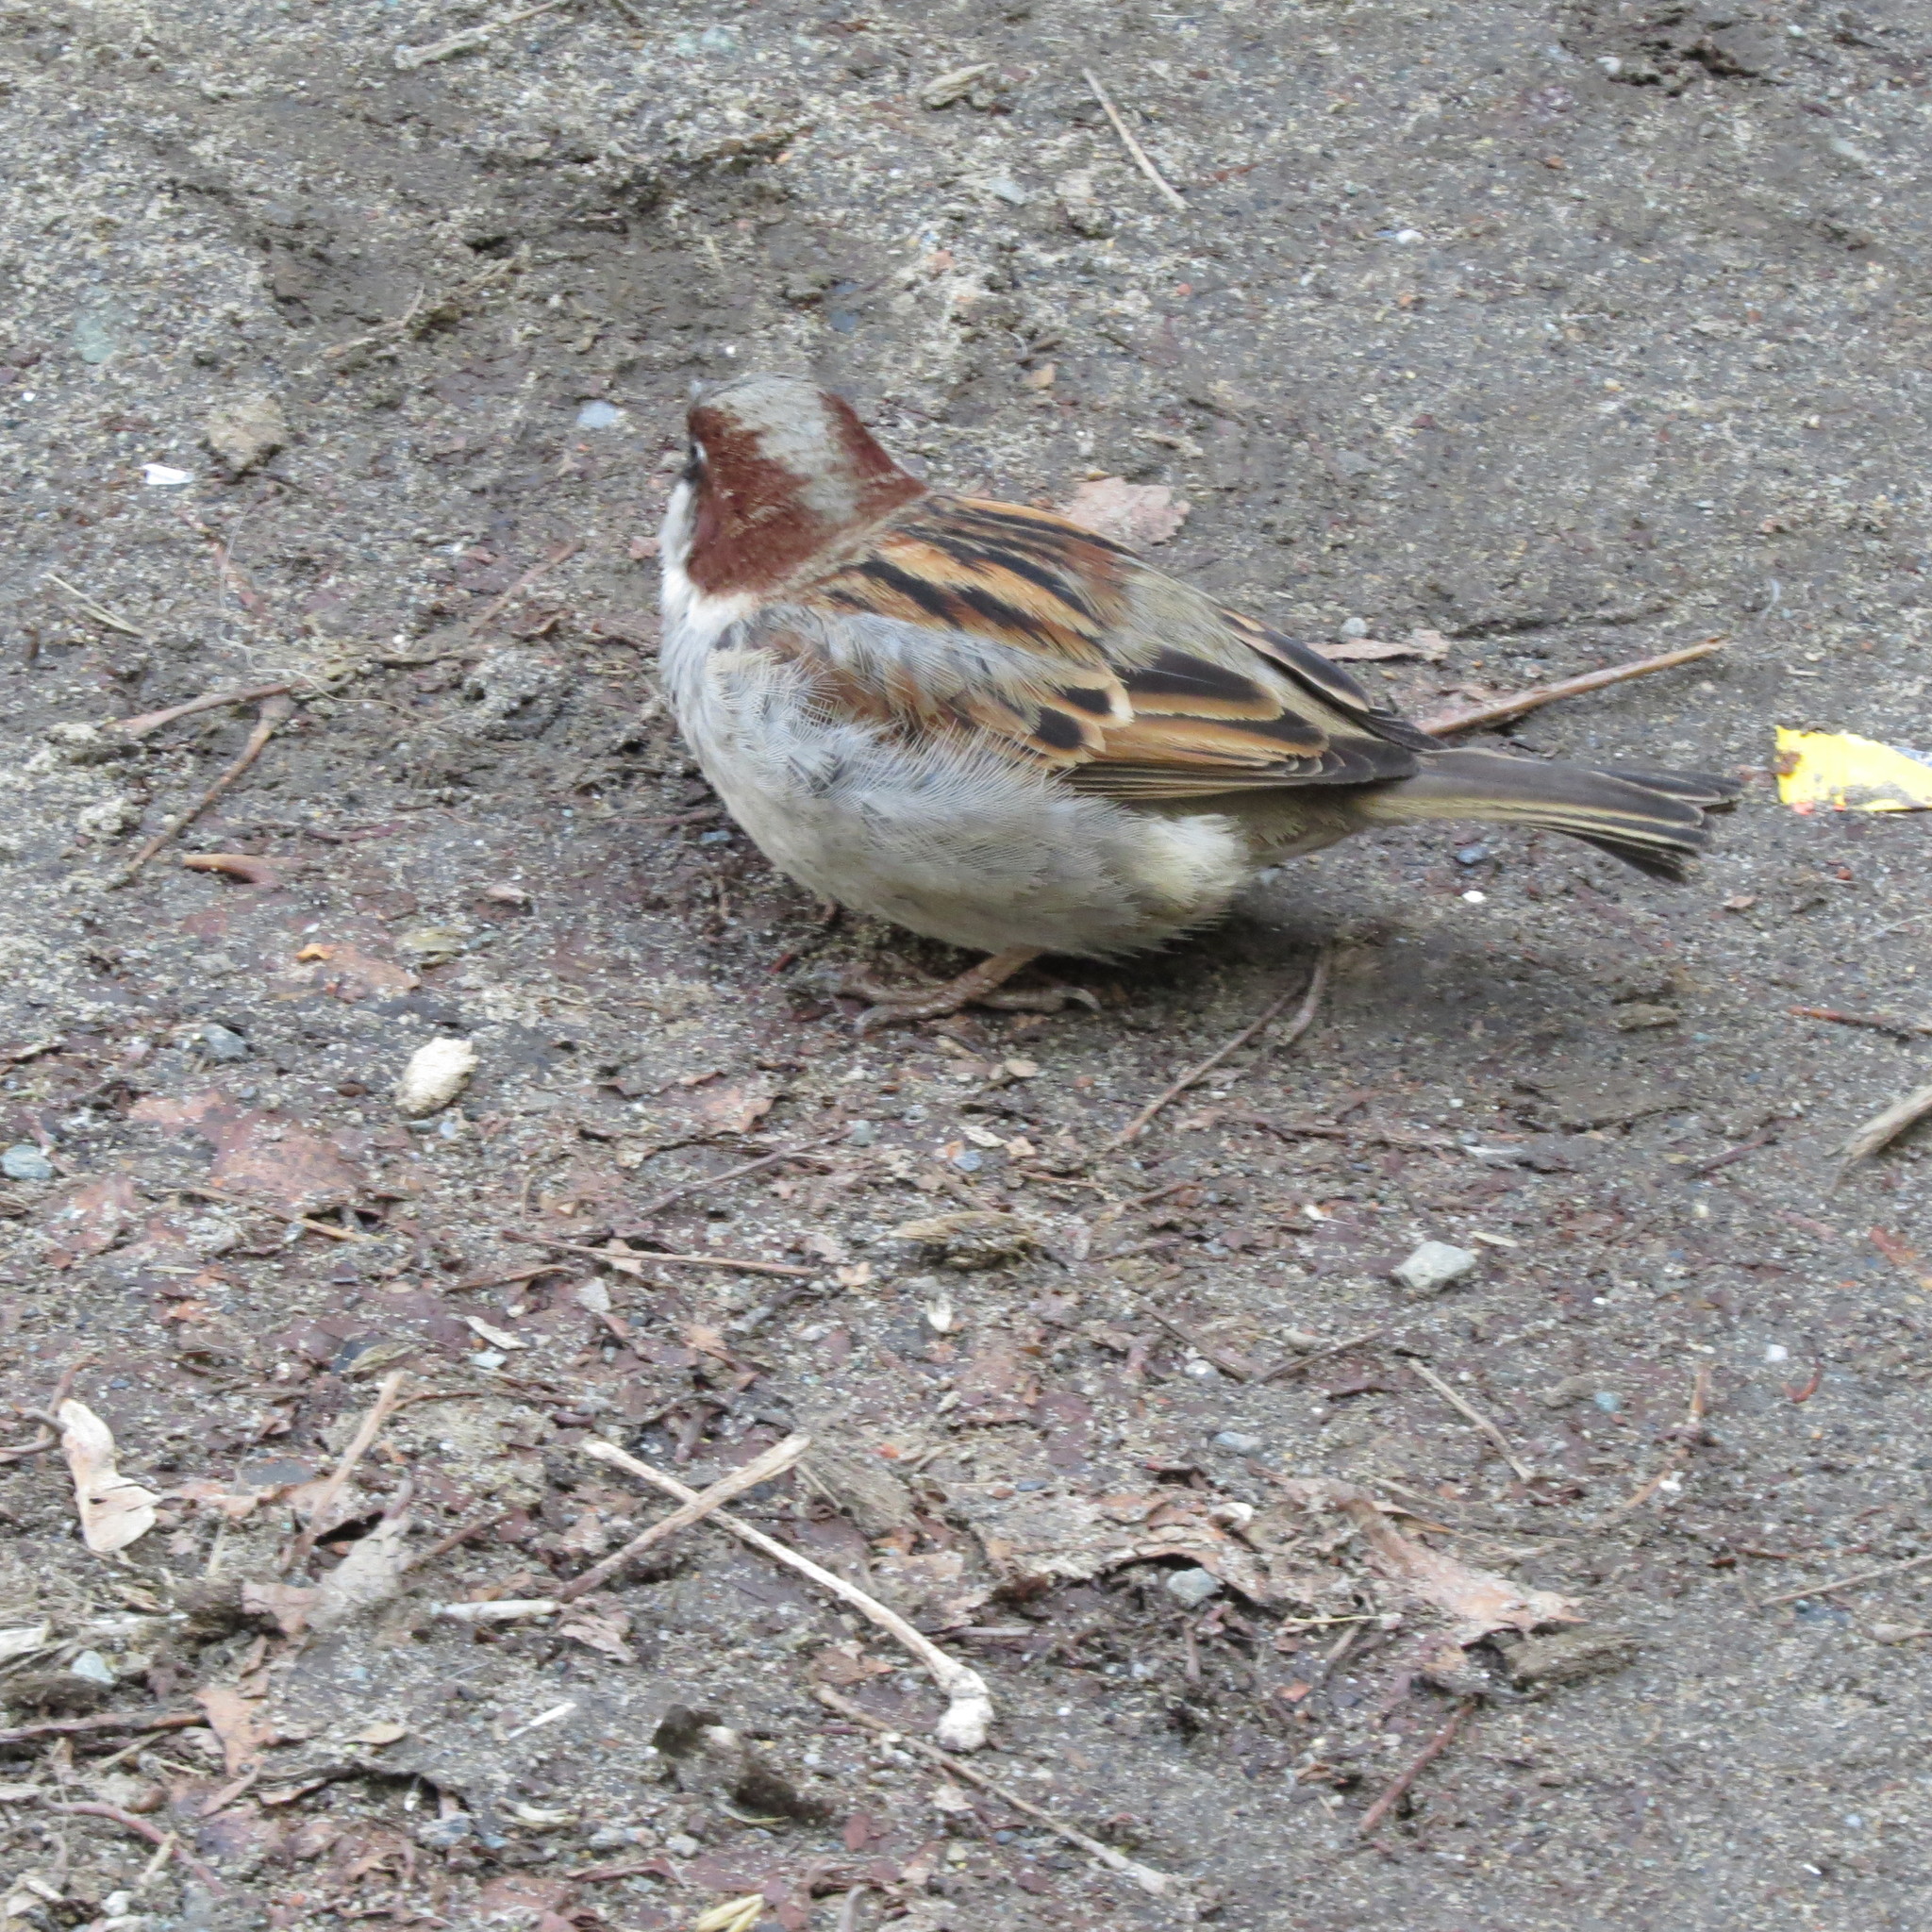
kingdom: Animalia
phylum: Chordata
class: Aves
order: Passeriformes
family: Passeridae
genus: Passer
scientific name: Passer domesticus
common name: House sparrow
